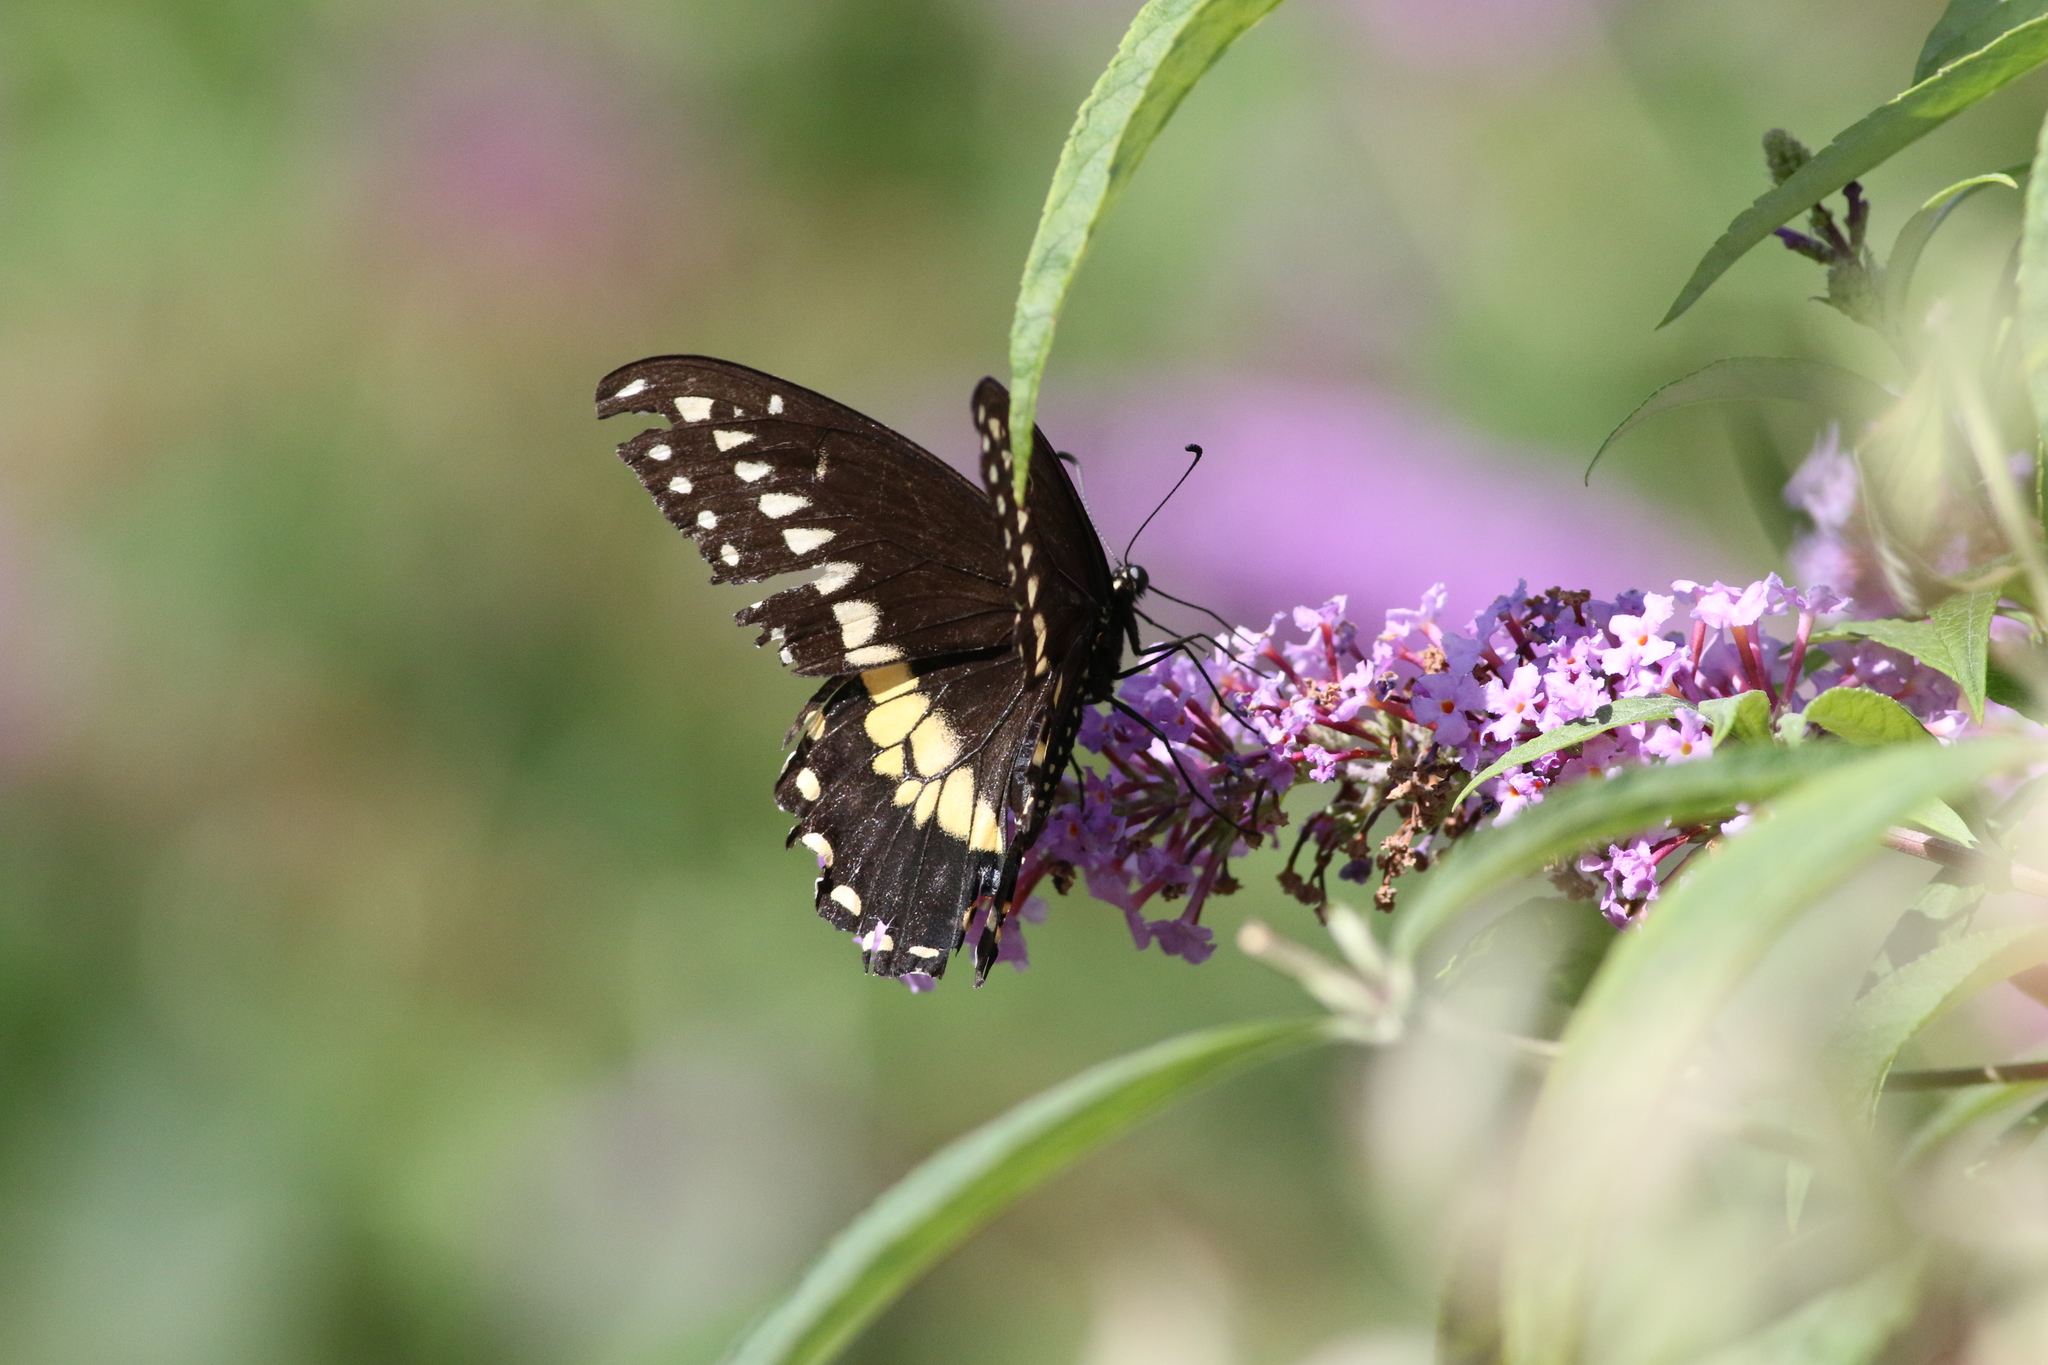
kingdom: Animalia
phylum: Arthropoda
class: Insecta
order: Lepidoptera
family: Papilionidae
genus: Papilio
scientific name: Papilio polyxenes
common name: Black swallowtail
